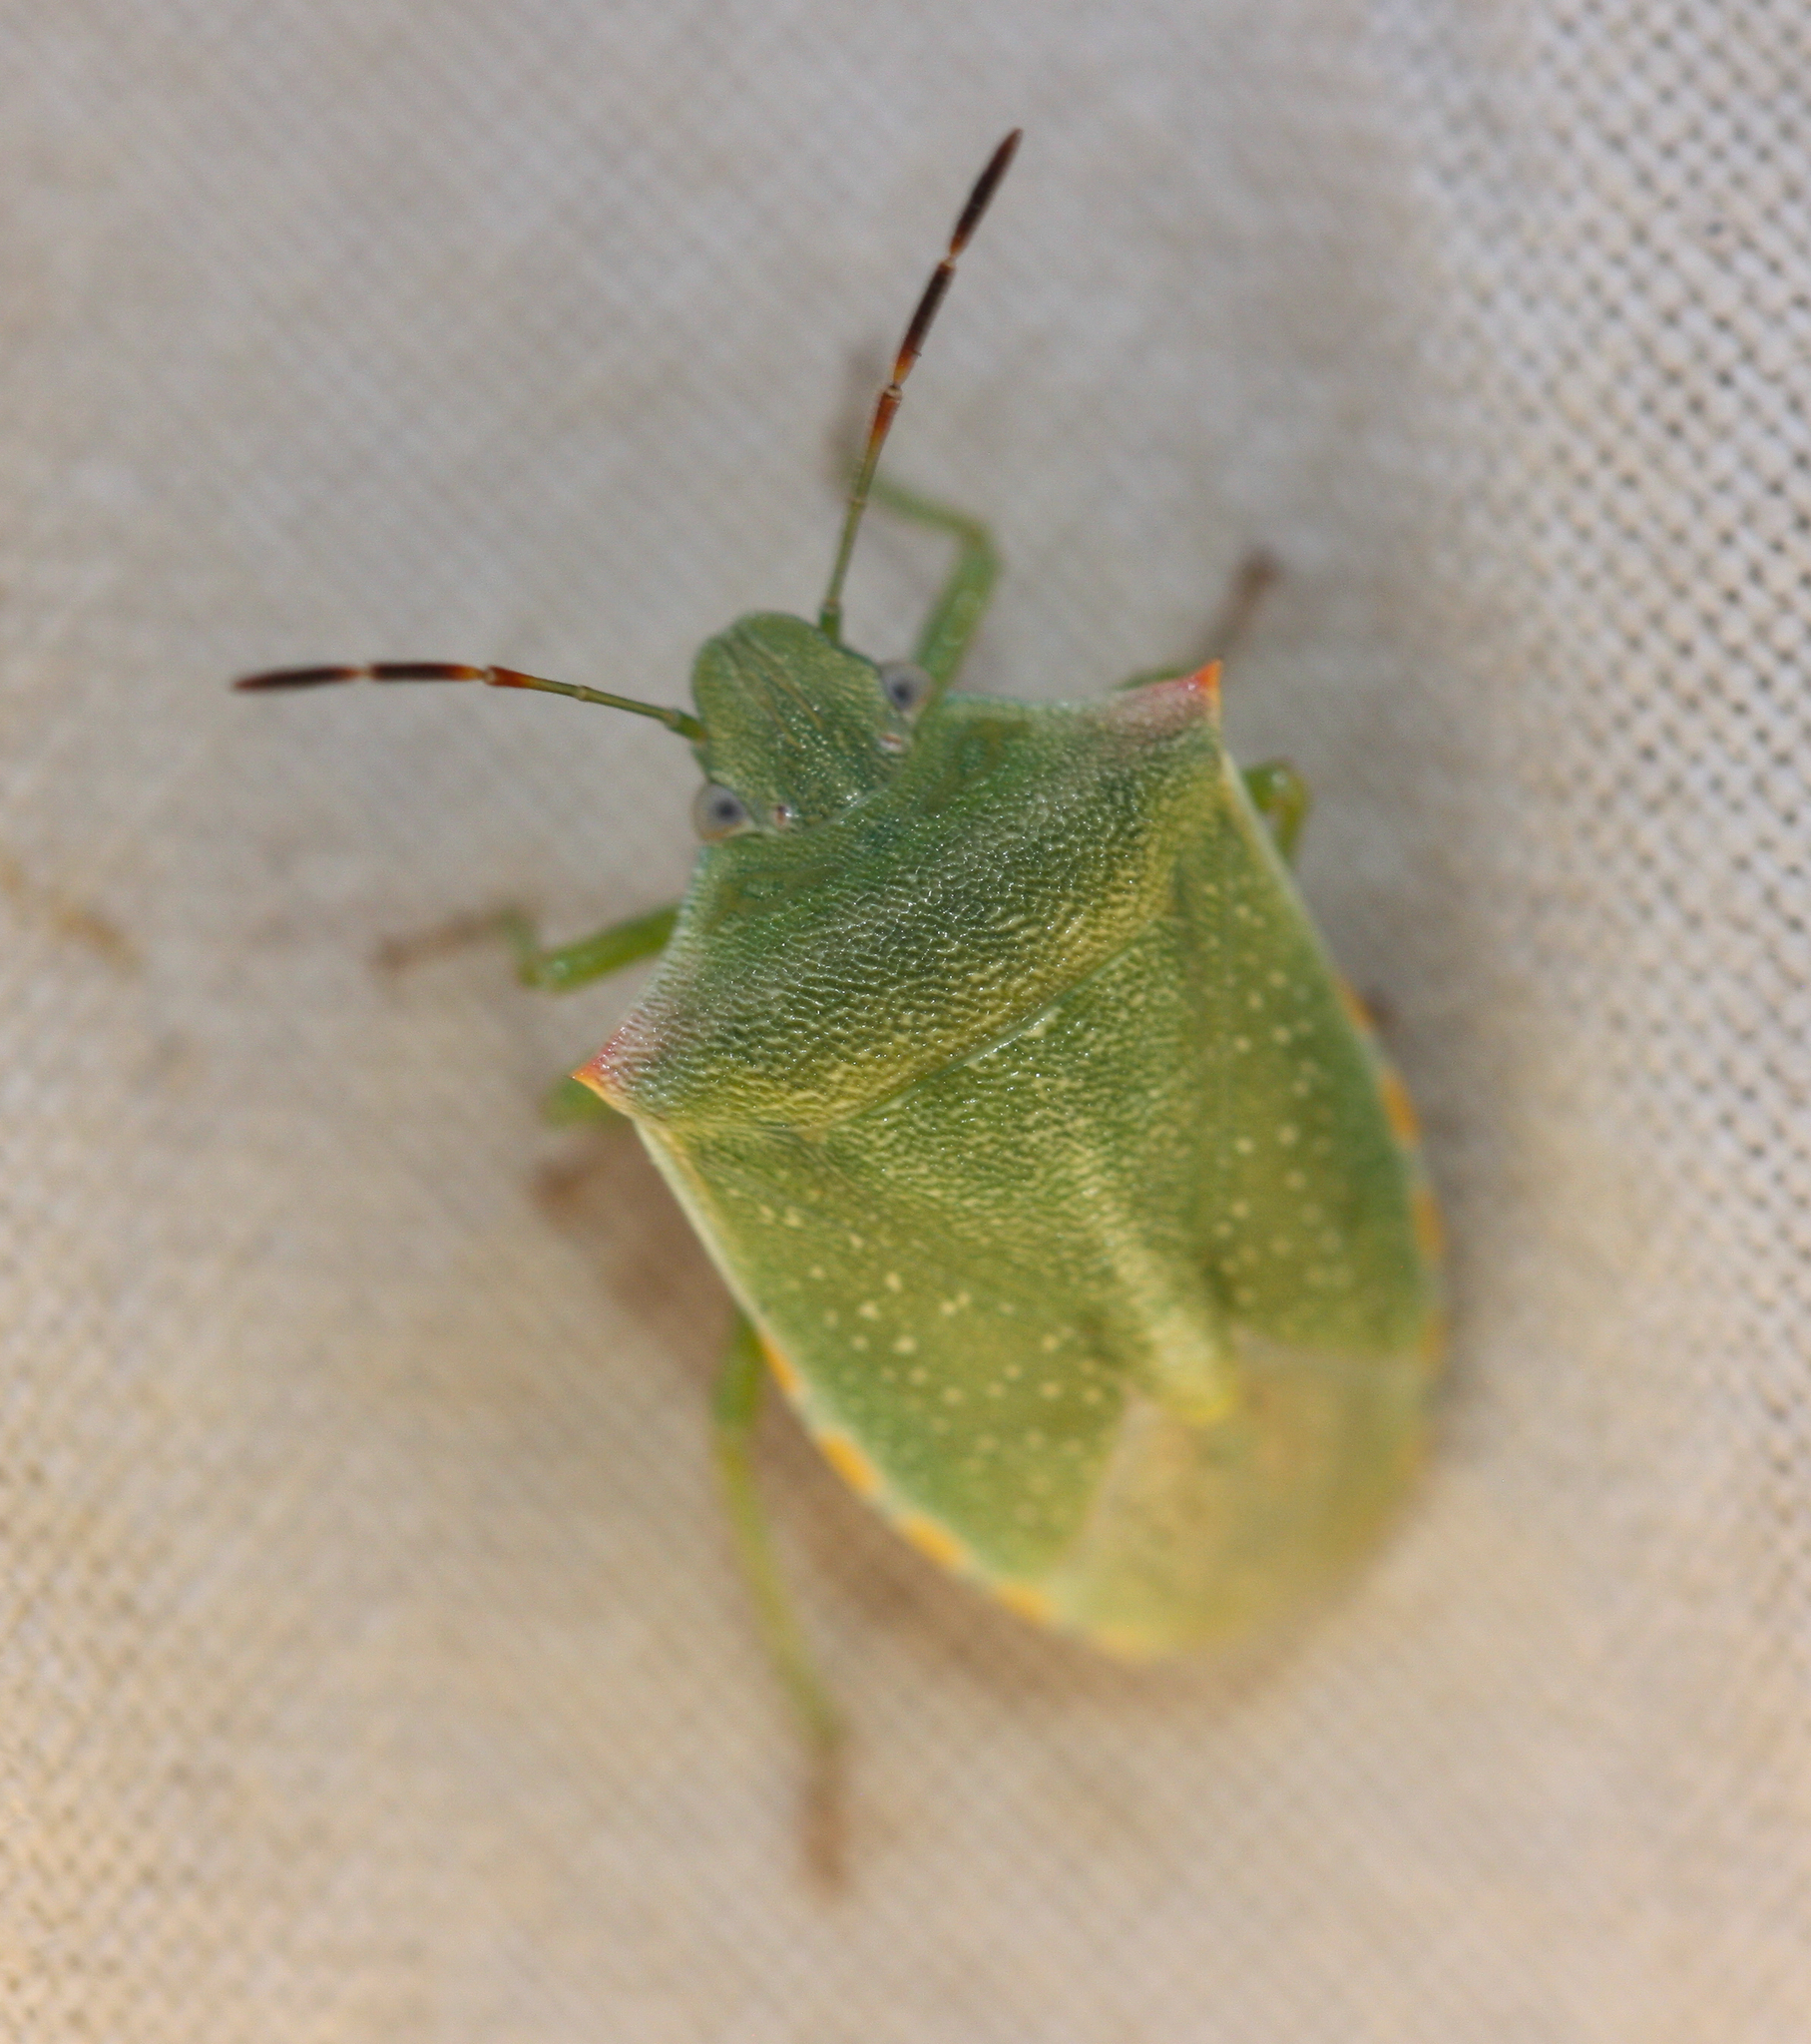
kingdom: Animalia
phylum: Arthropoda
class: Insecta
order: Hemiptera
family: Pentatomidae
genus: Thyanta
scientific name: Thyanta accerra
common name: Stink bug
